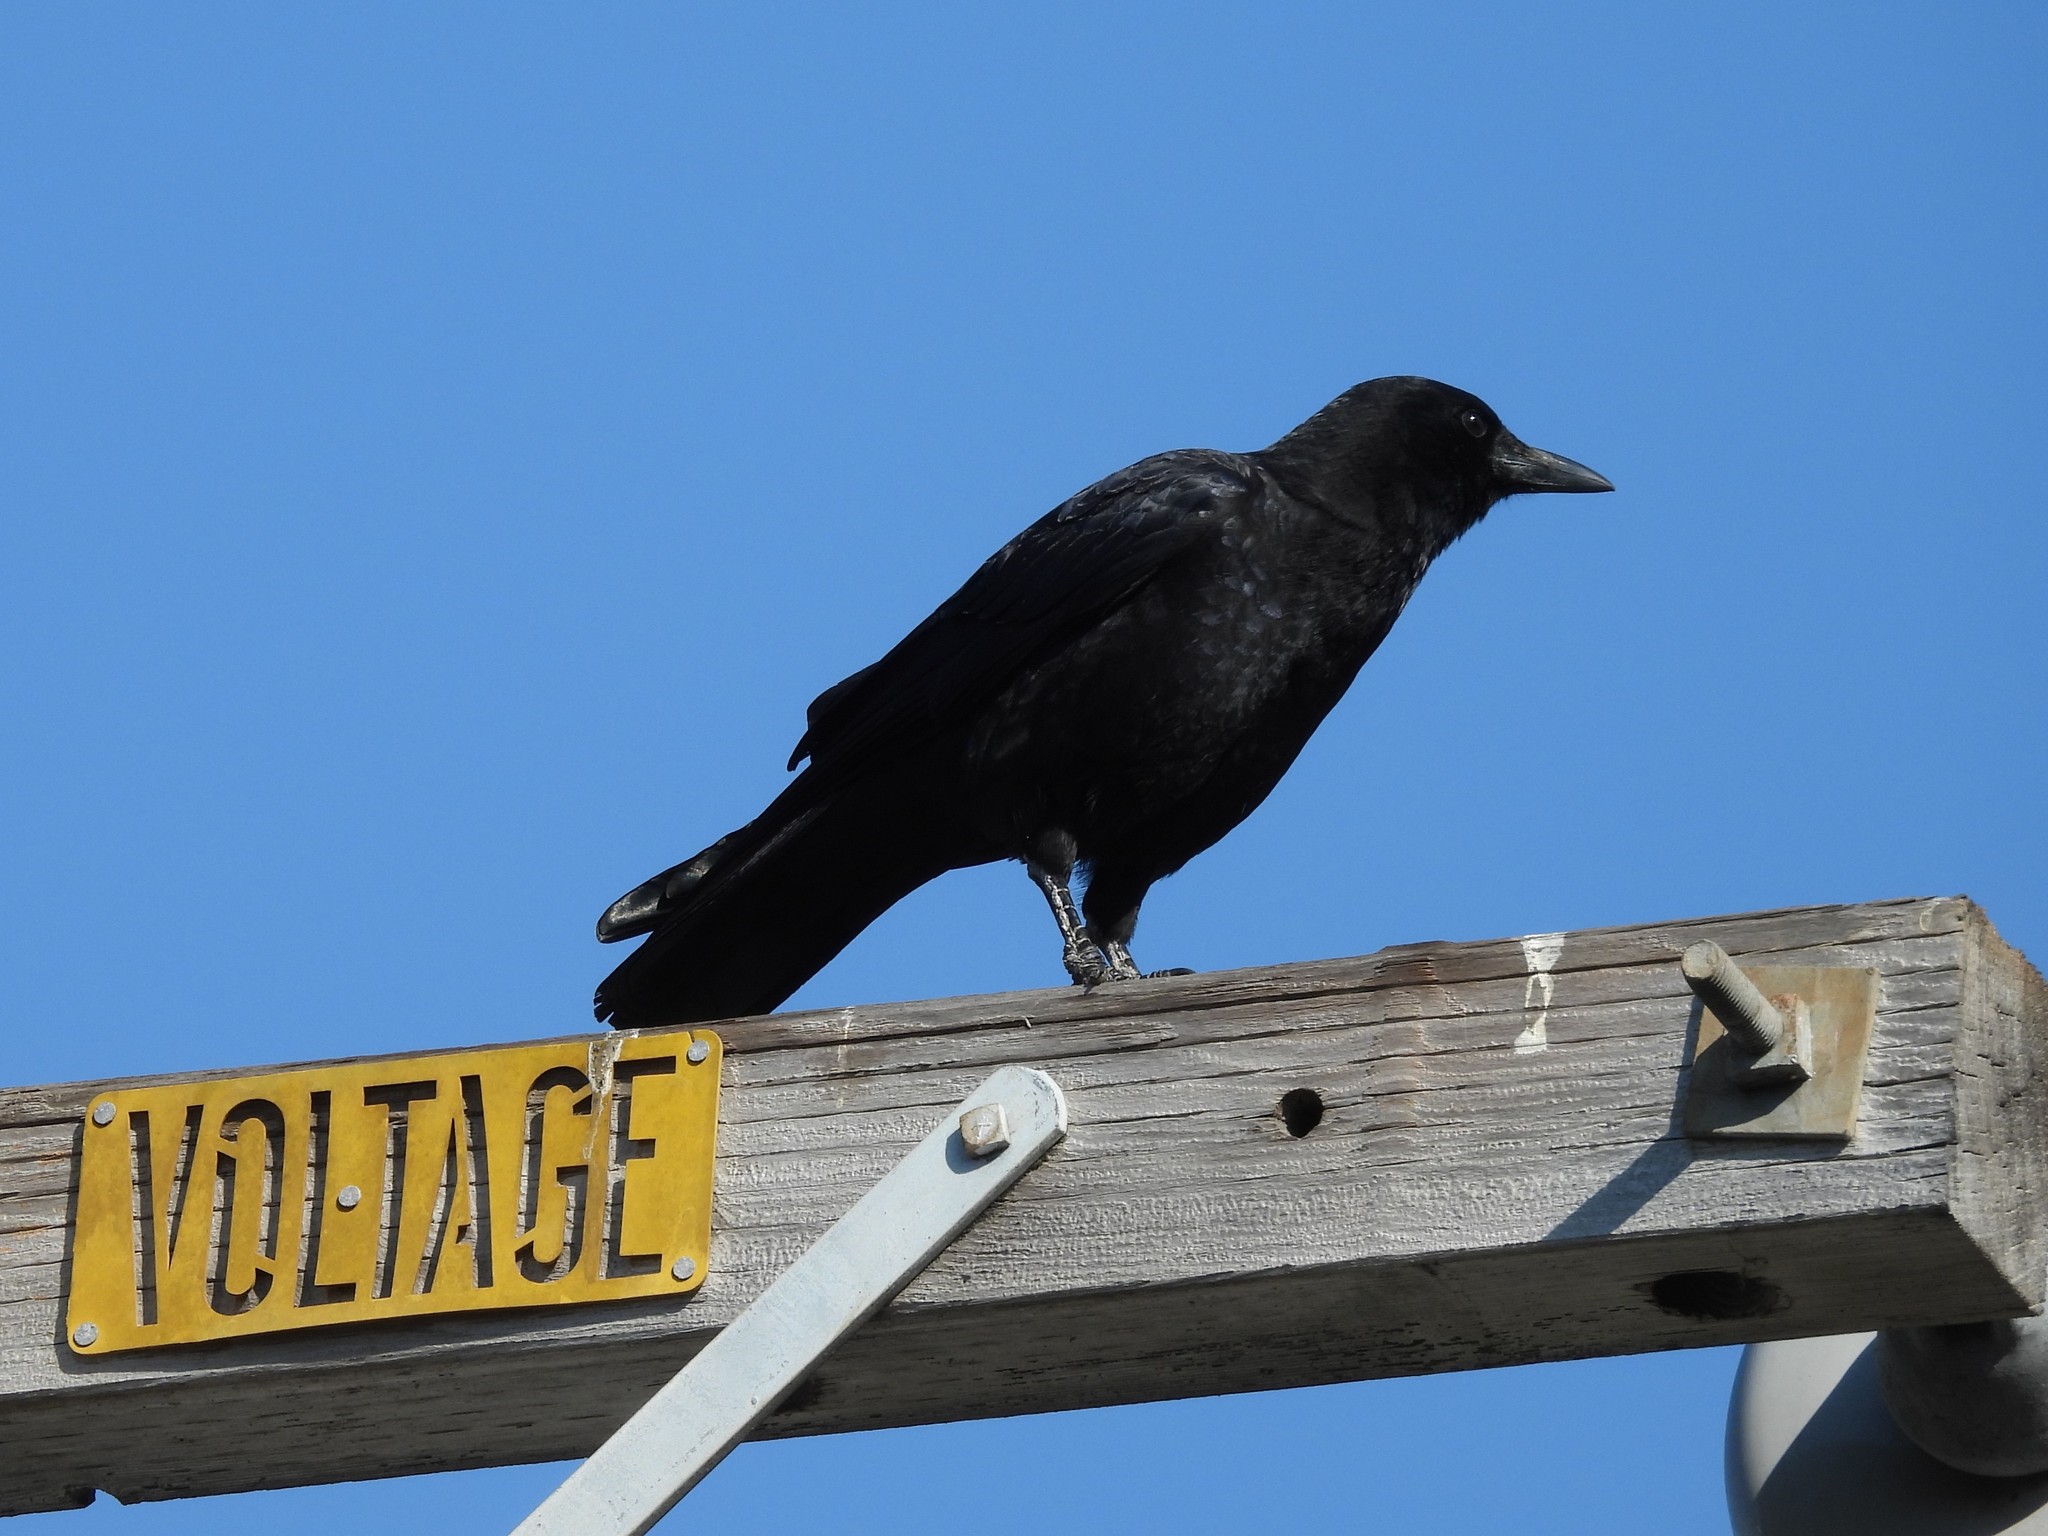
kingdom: Animalia
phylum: Chordata
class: Aves
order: Passeriformes
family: Corvidae
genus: Corvus
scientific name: Corvus brachyrhynchos
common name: American crow
